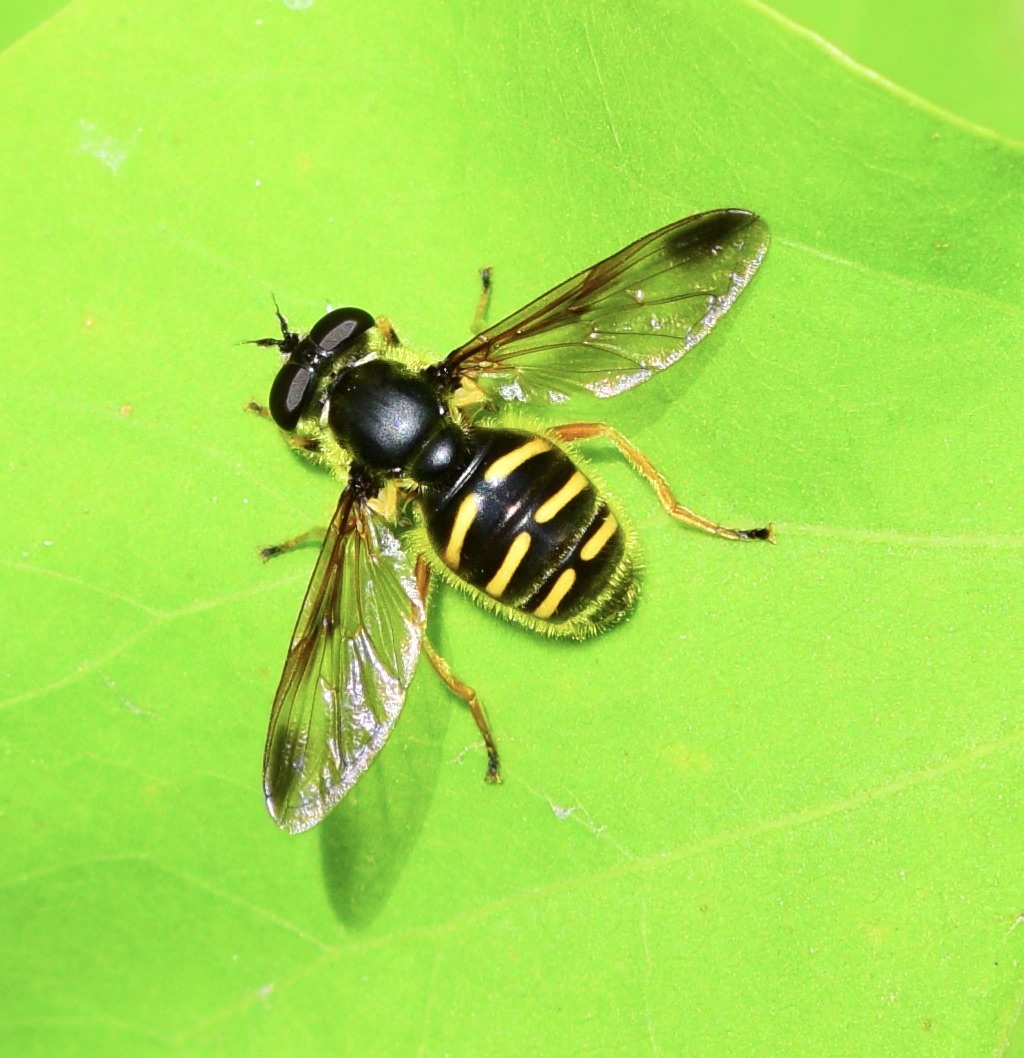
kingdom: Animalia
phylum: Arthropoda
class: Insecta
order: Diptera
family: Syrphidae
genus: Sericomyia
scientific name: Sericomyia chrysotoxoides
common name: Oblique-banded pond fly
